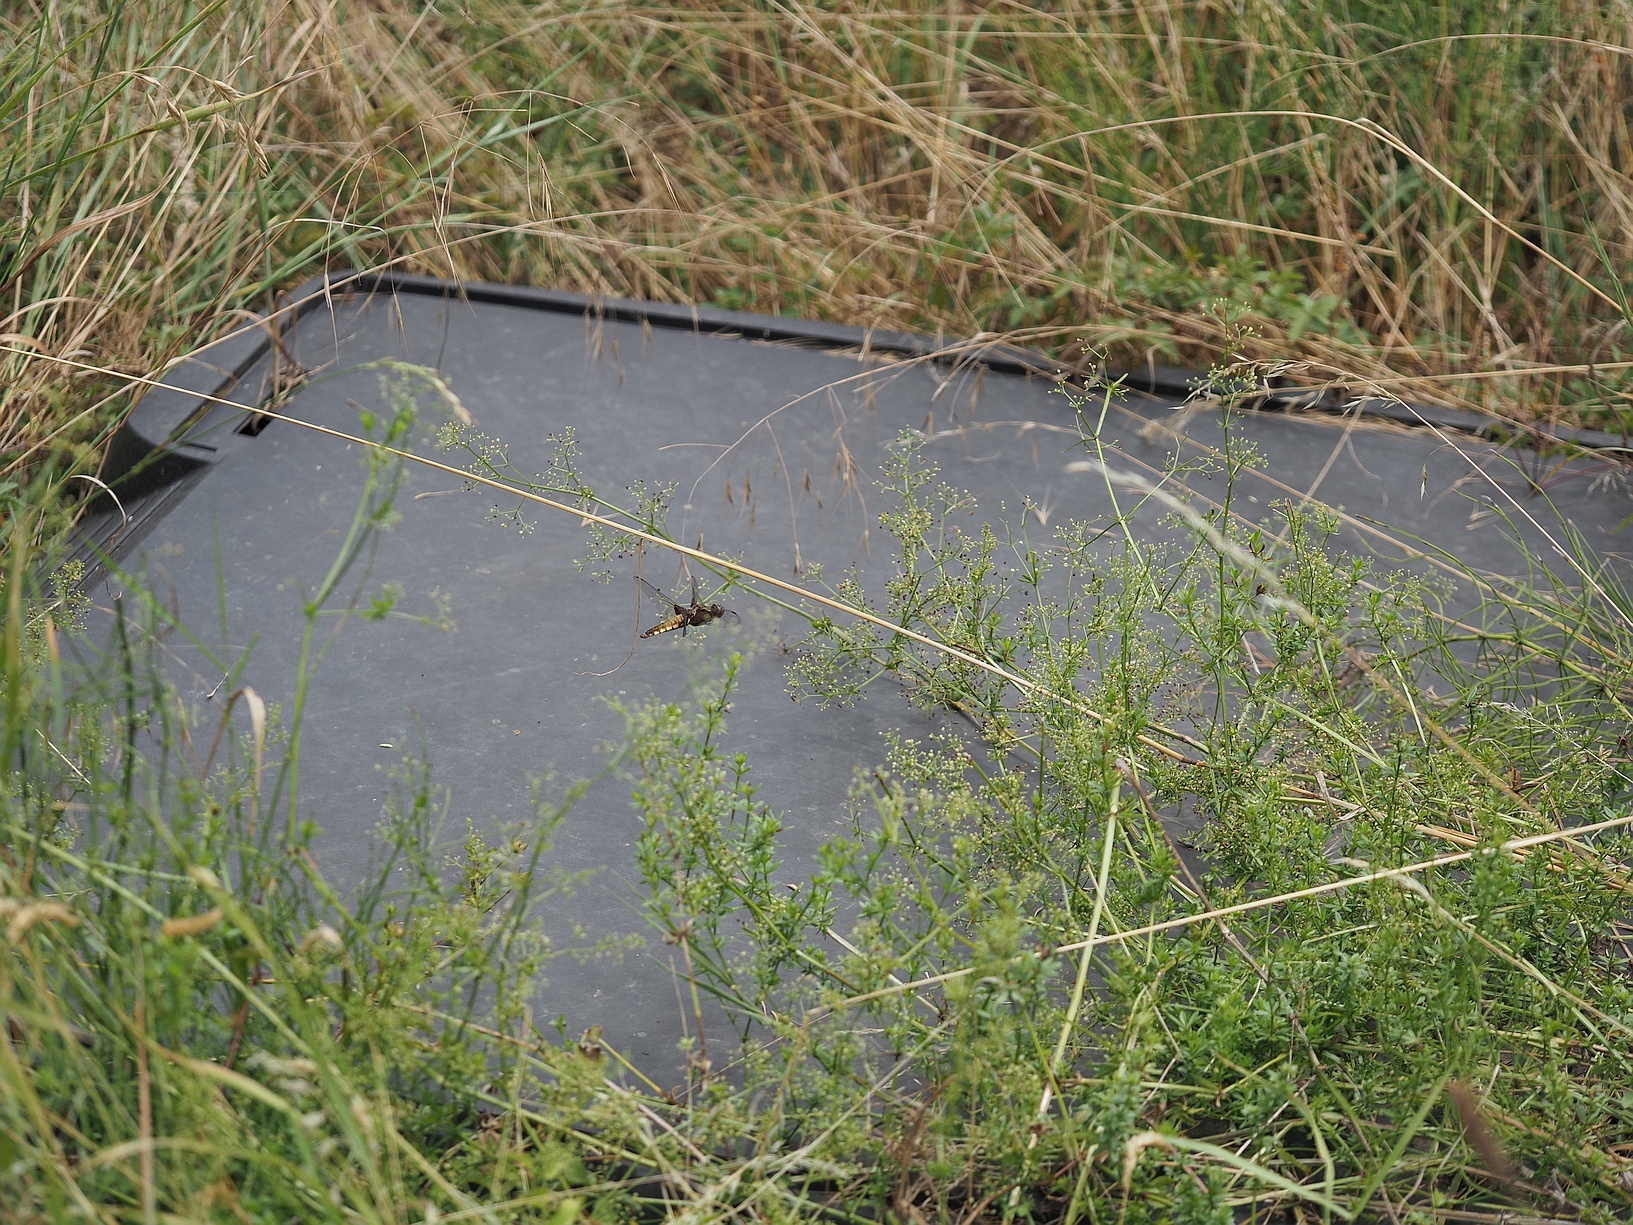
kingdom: Animalia
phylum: Arthropoda
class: Insecta
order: Odonata
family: Libellulidae
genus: Libellula
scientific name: Libellula depressa
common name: Broad-bodied chaser
